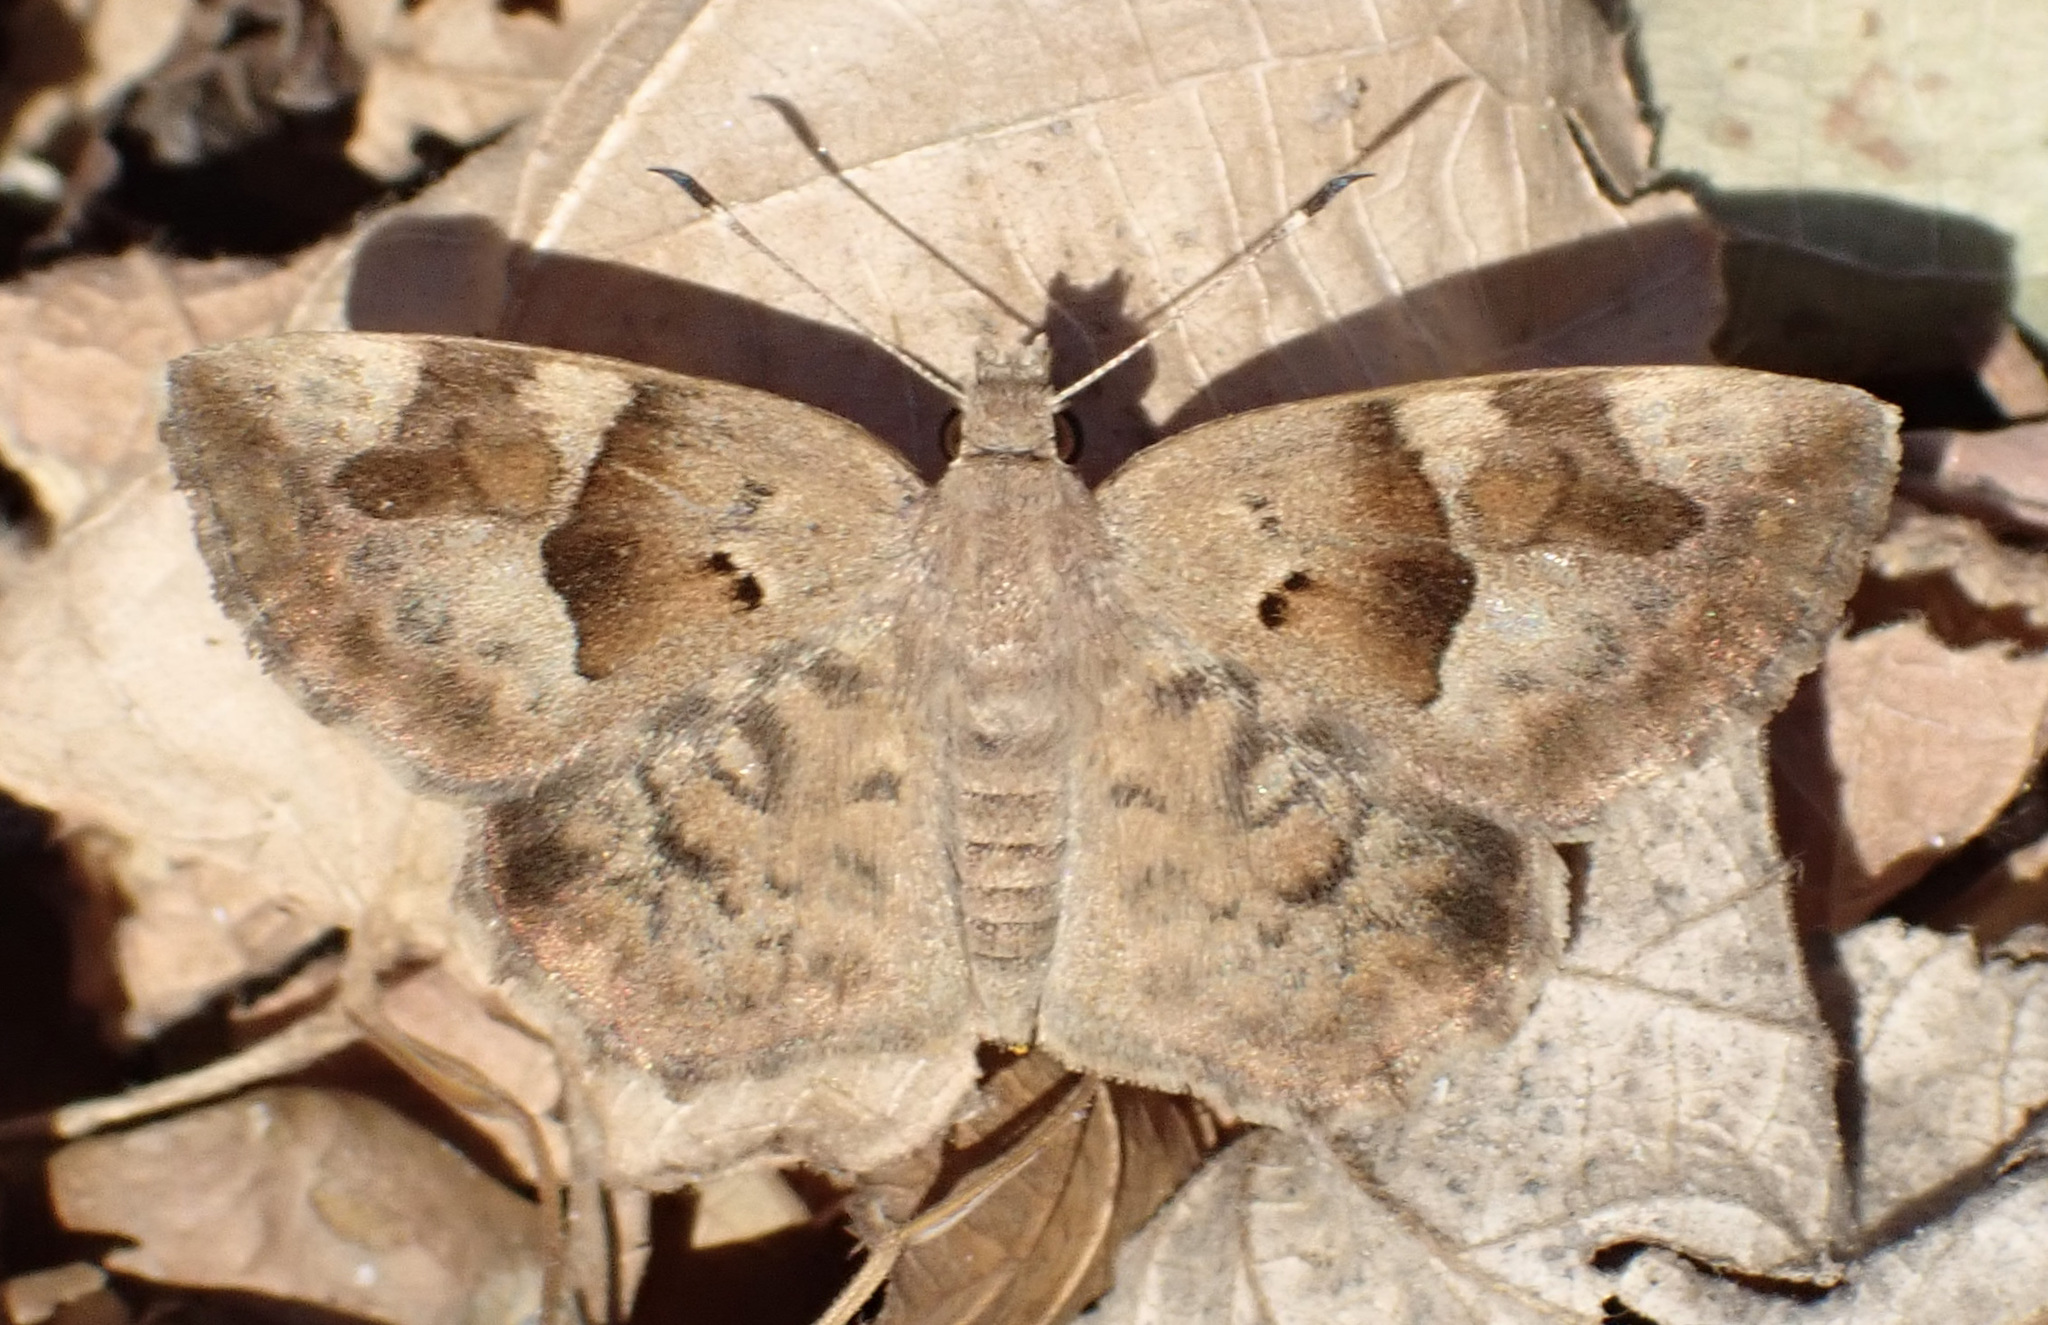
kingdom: Animalia
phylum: Arthropoda
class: Insecta
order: Lepidoptera
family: Hesperiidae
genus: Sarangesa
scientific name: Sarangesa motozi
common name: Forest elfin
